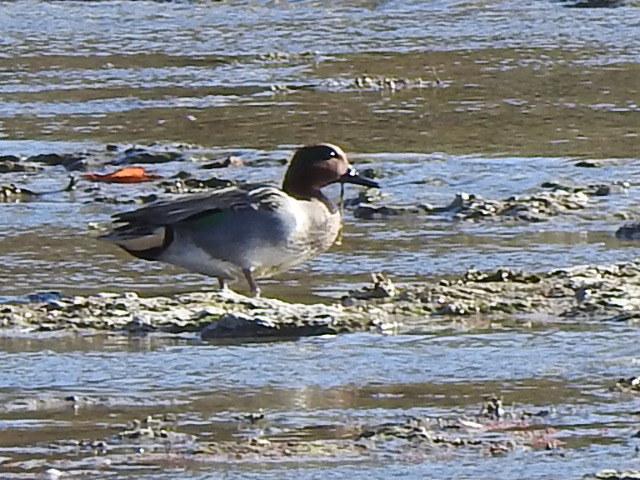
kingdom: Animalia
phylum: Chordata
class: Aves
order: Anseriformes
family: Anatidae
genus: Anas
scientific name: Anas crecca
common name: Eurasian teal
